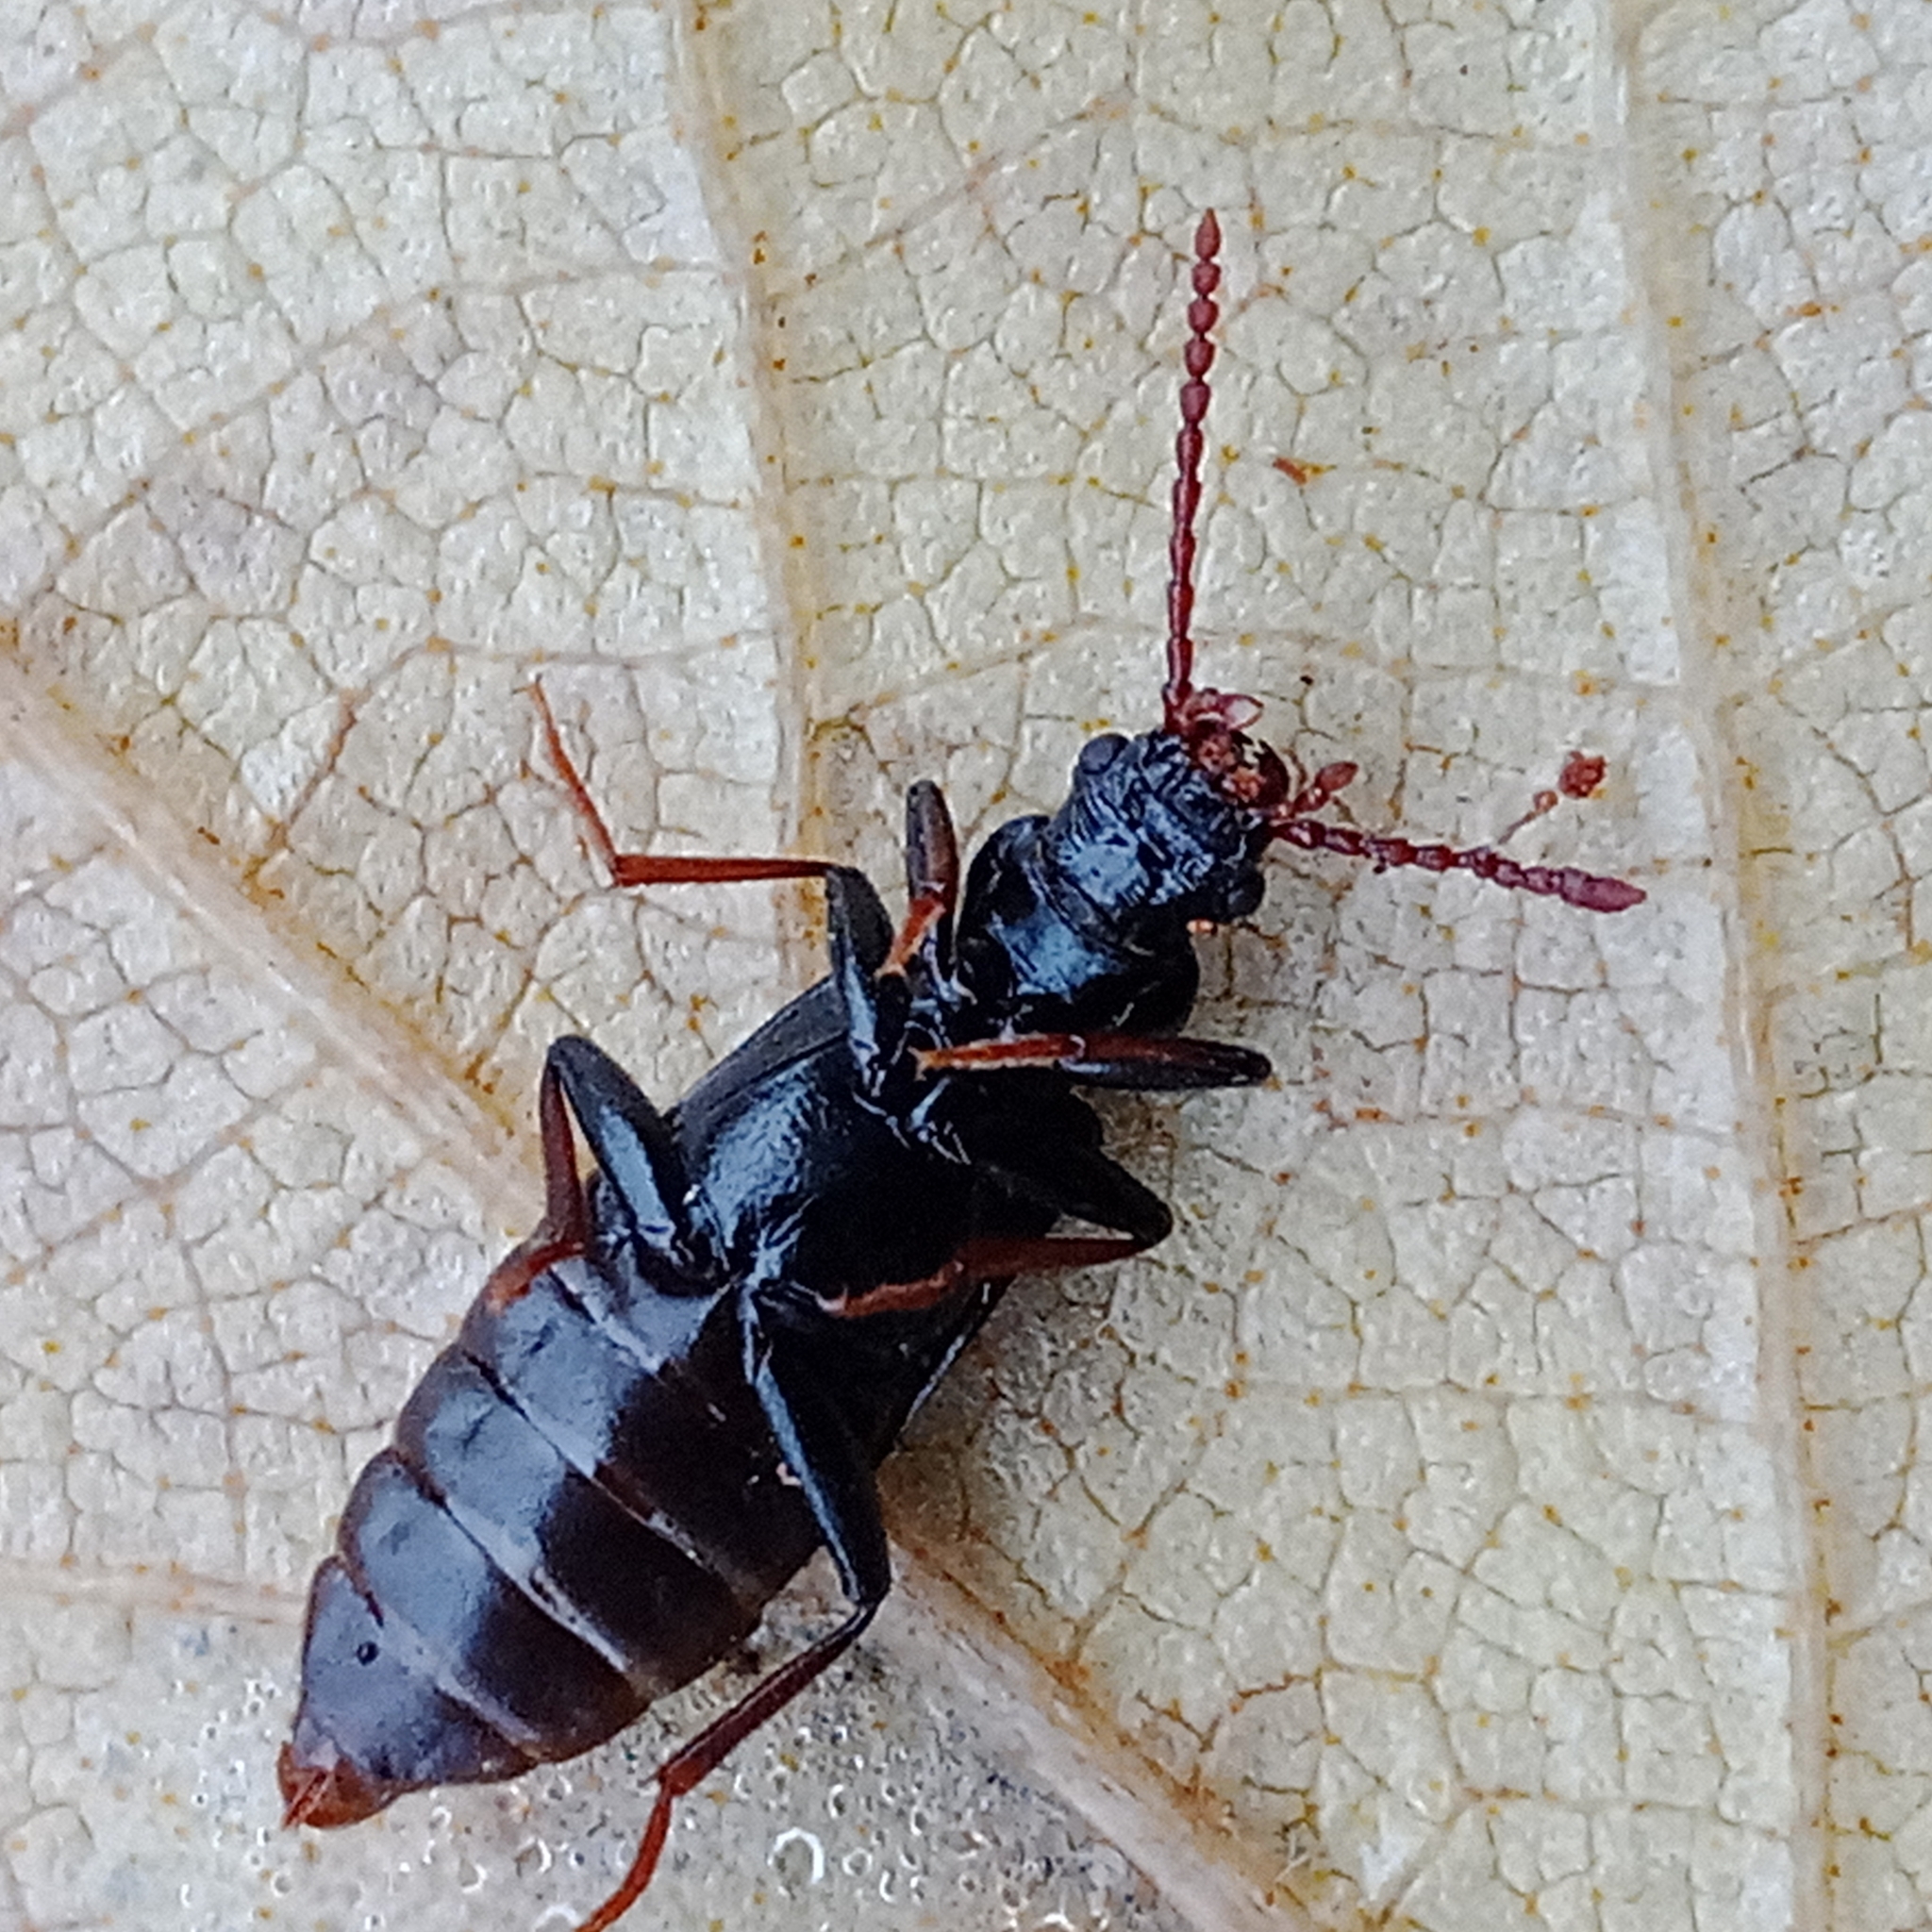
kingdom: Animalia
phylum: Arthropoda
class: Insecta
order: Coleoptera
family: Pythidae
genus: Pytho
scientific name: Pytho depressus
